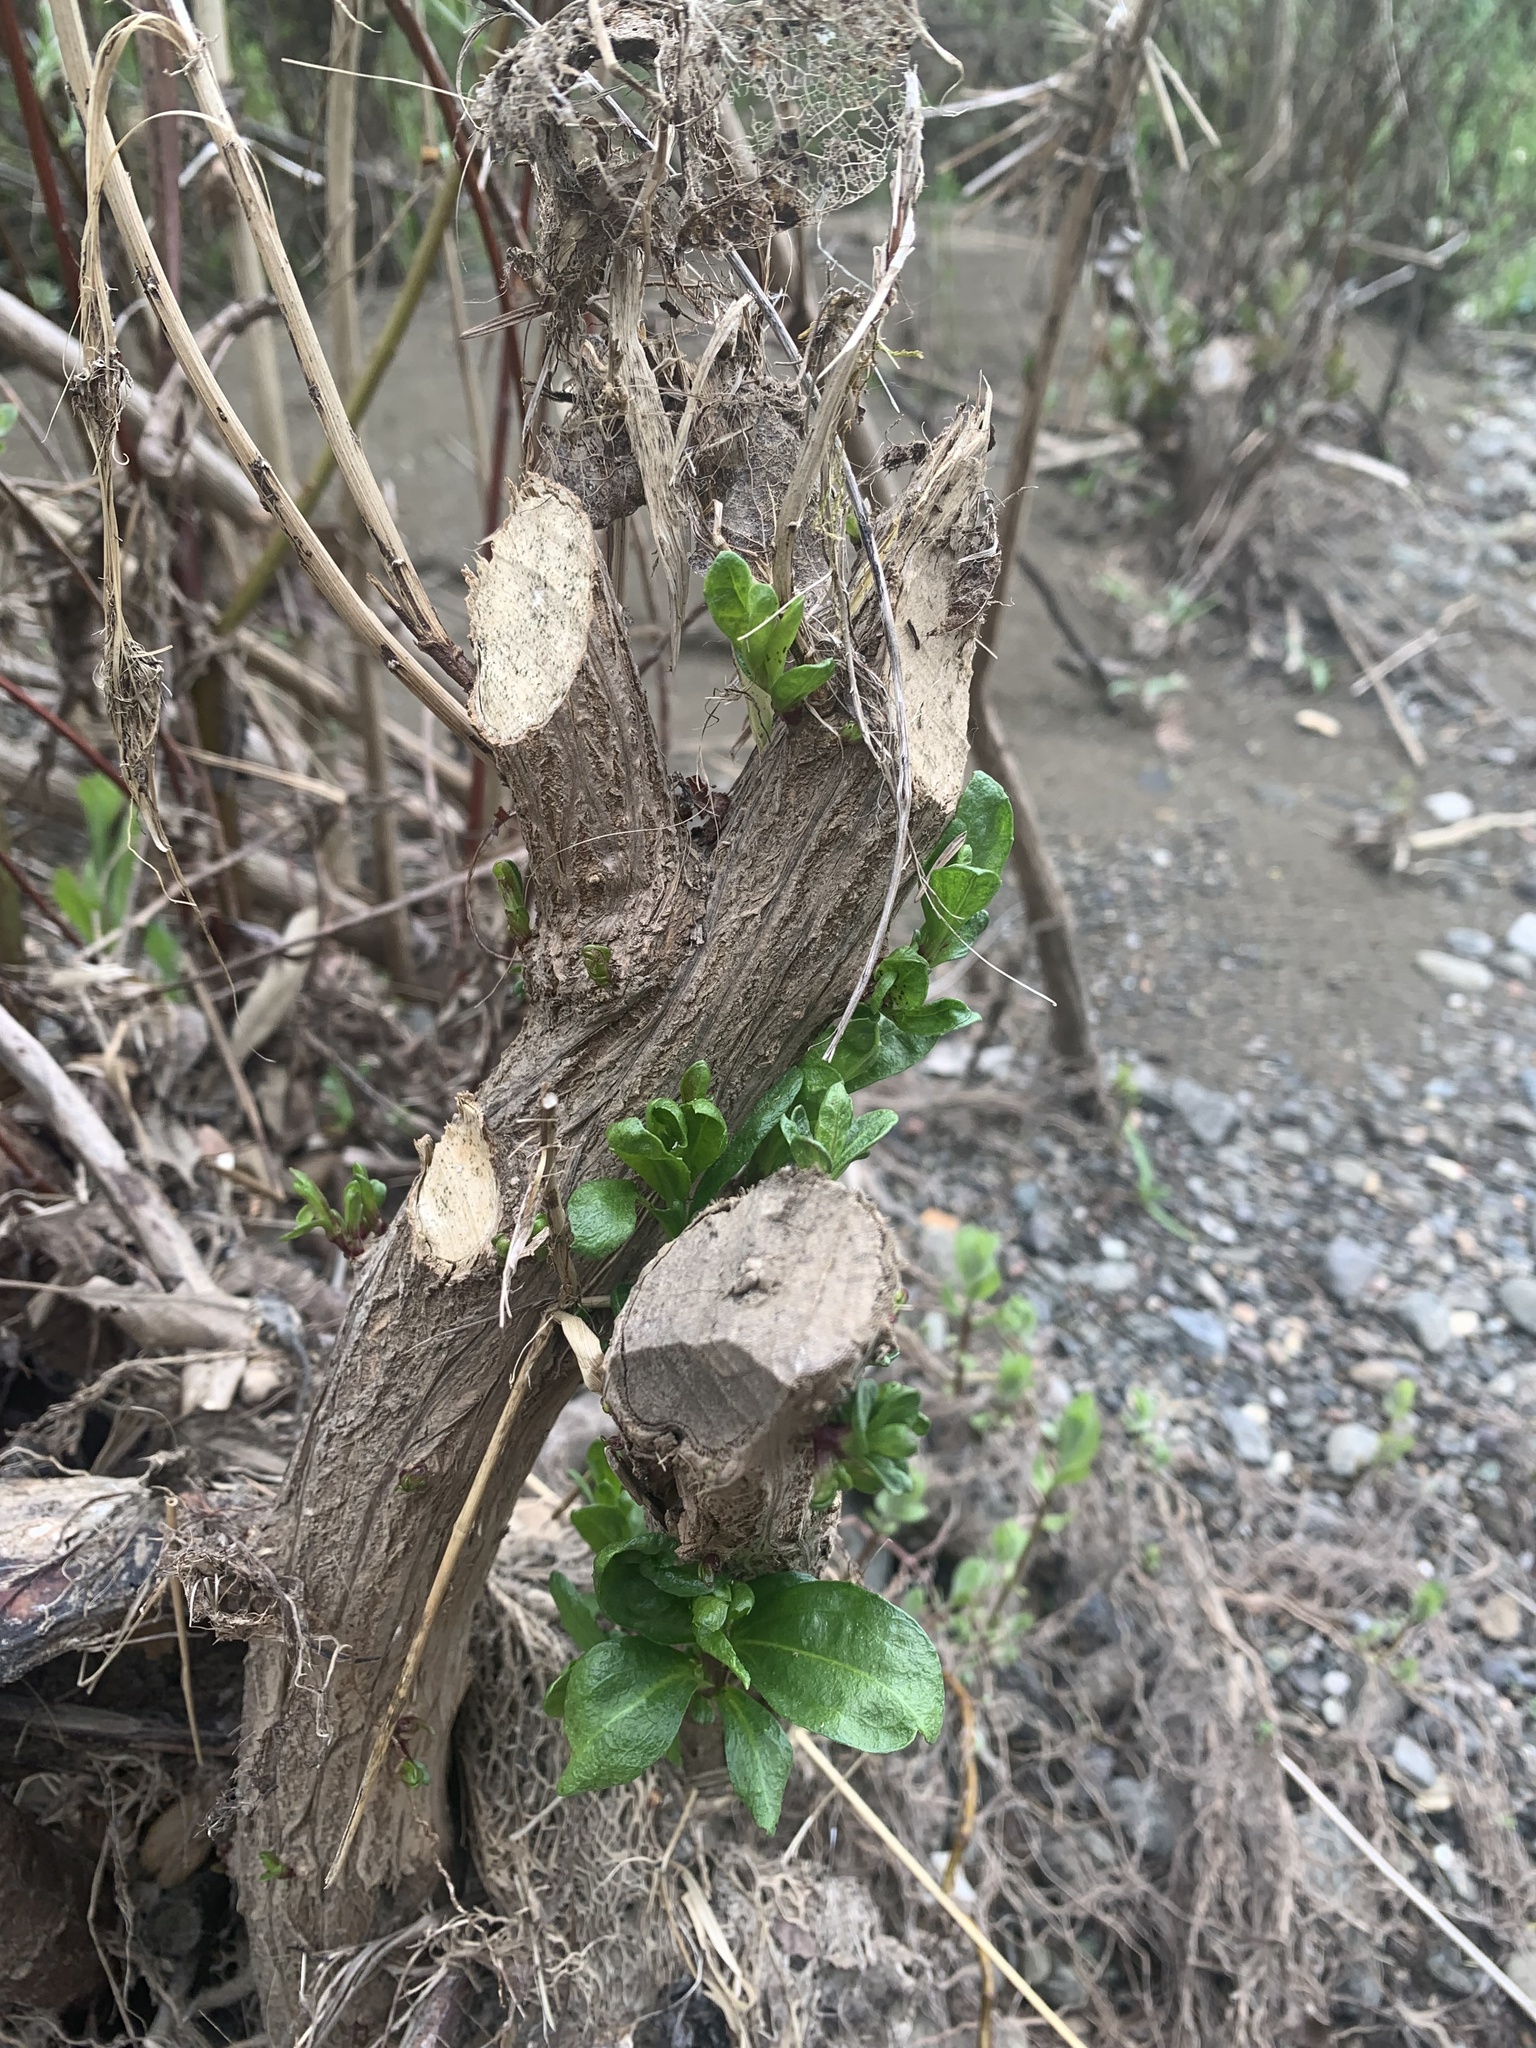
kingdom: Animalia
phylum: Chordata
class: Mammalia
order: Rodentia
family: Castoridae
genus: Castor
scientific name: Castor canadensis
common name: American beaver
